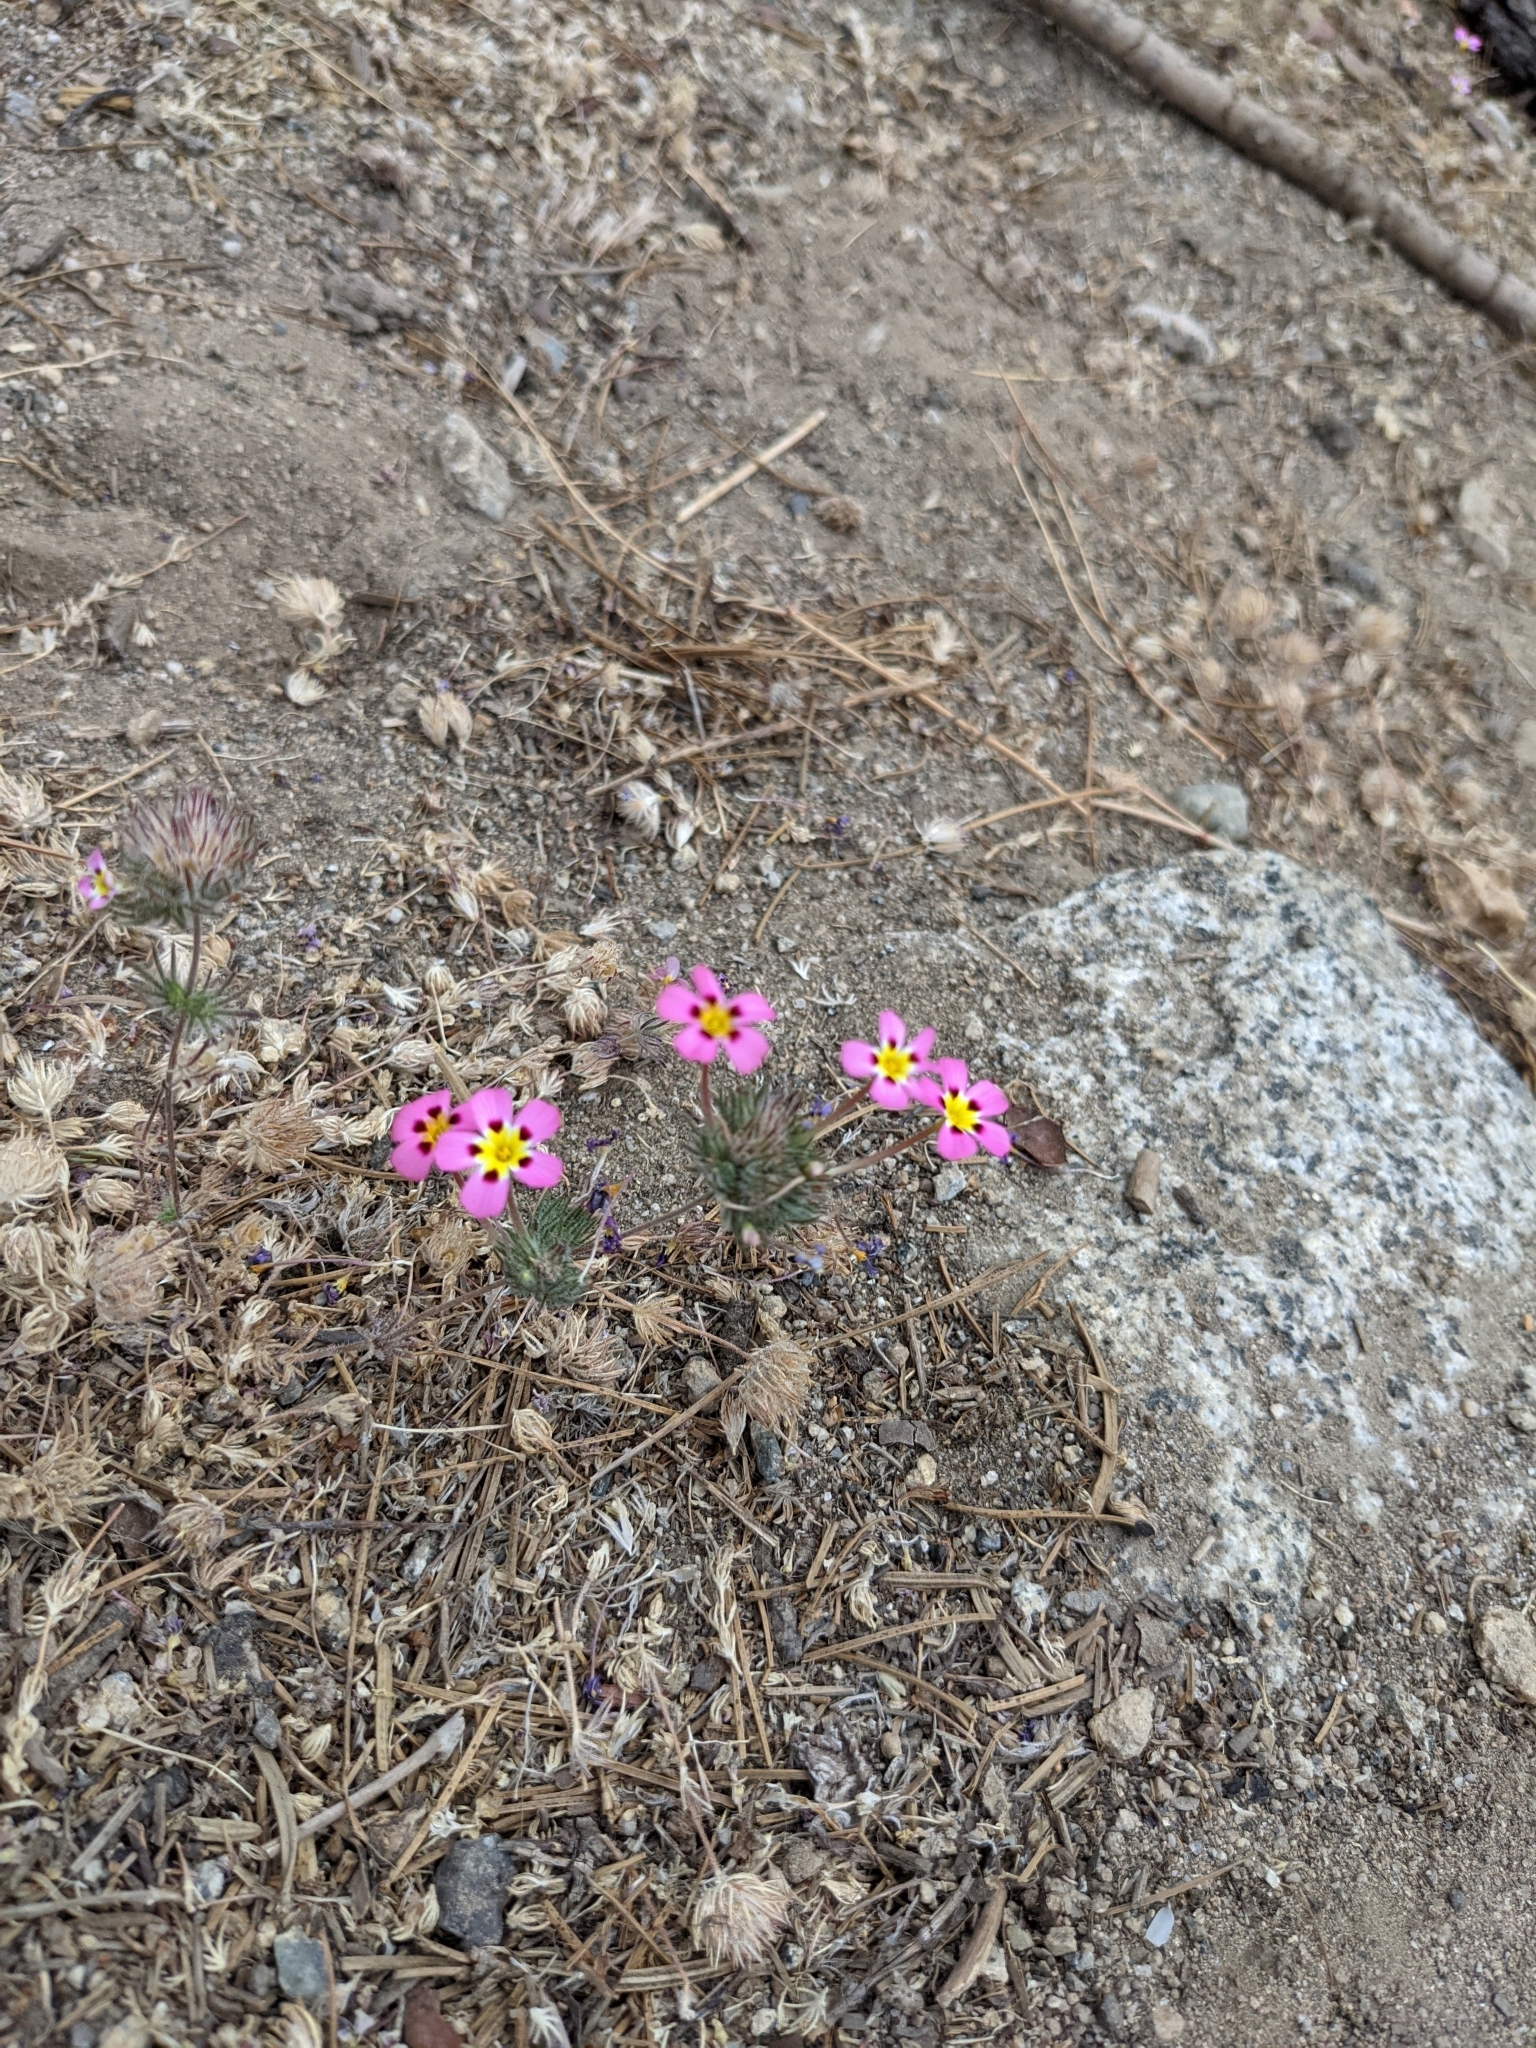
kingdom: Plantae
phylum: Tracheophyta
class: Magnoliopsida
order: Ericales
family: Polemoniaceae
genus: Leptosiphon
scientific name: Leptosiphon ciliatus
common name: Whiskerbrush
